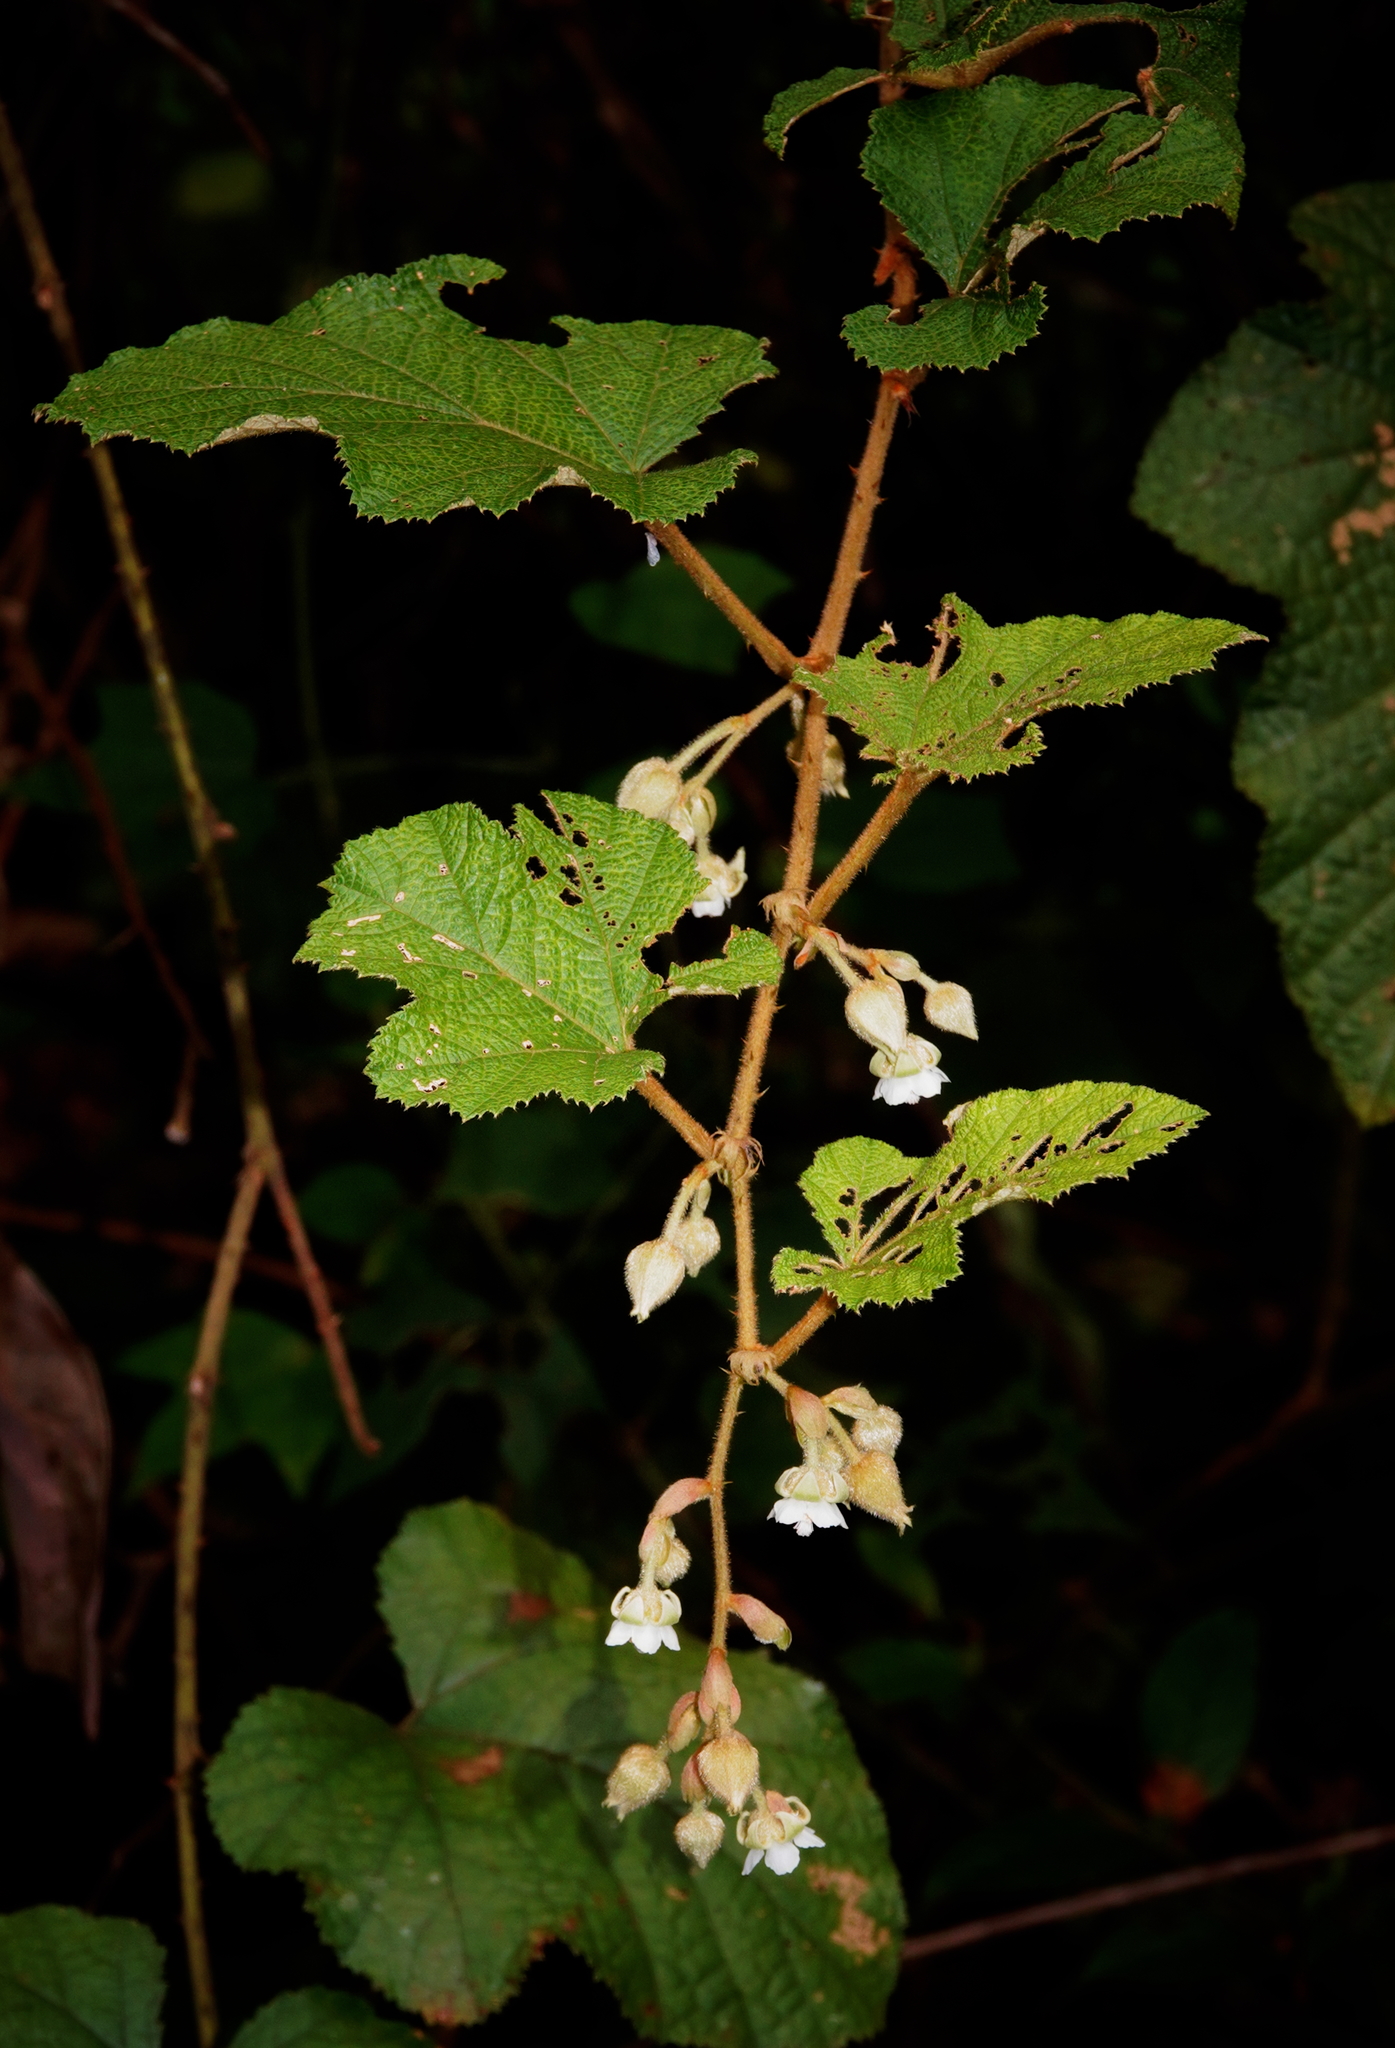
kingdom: Plantae
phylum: Tracheophyta
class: Magnoliopsida
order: Rosales
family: Rosaceae
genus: Rubus
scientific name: Rubus buergeri
